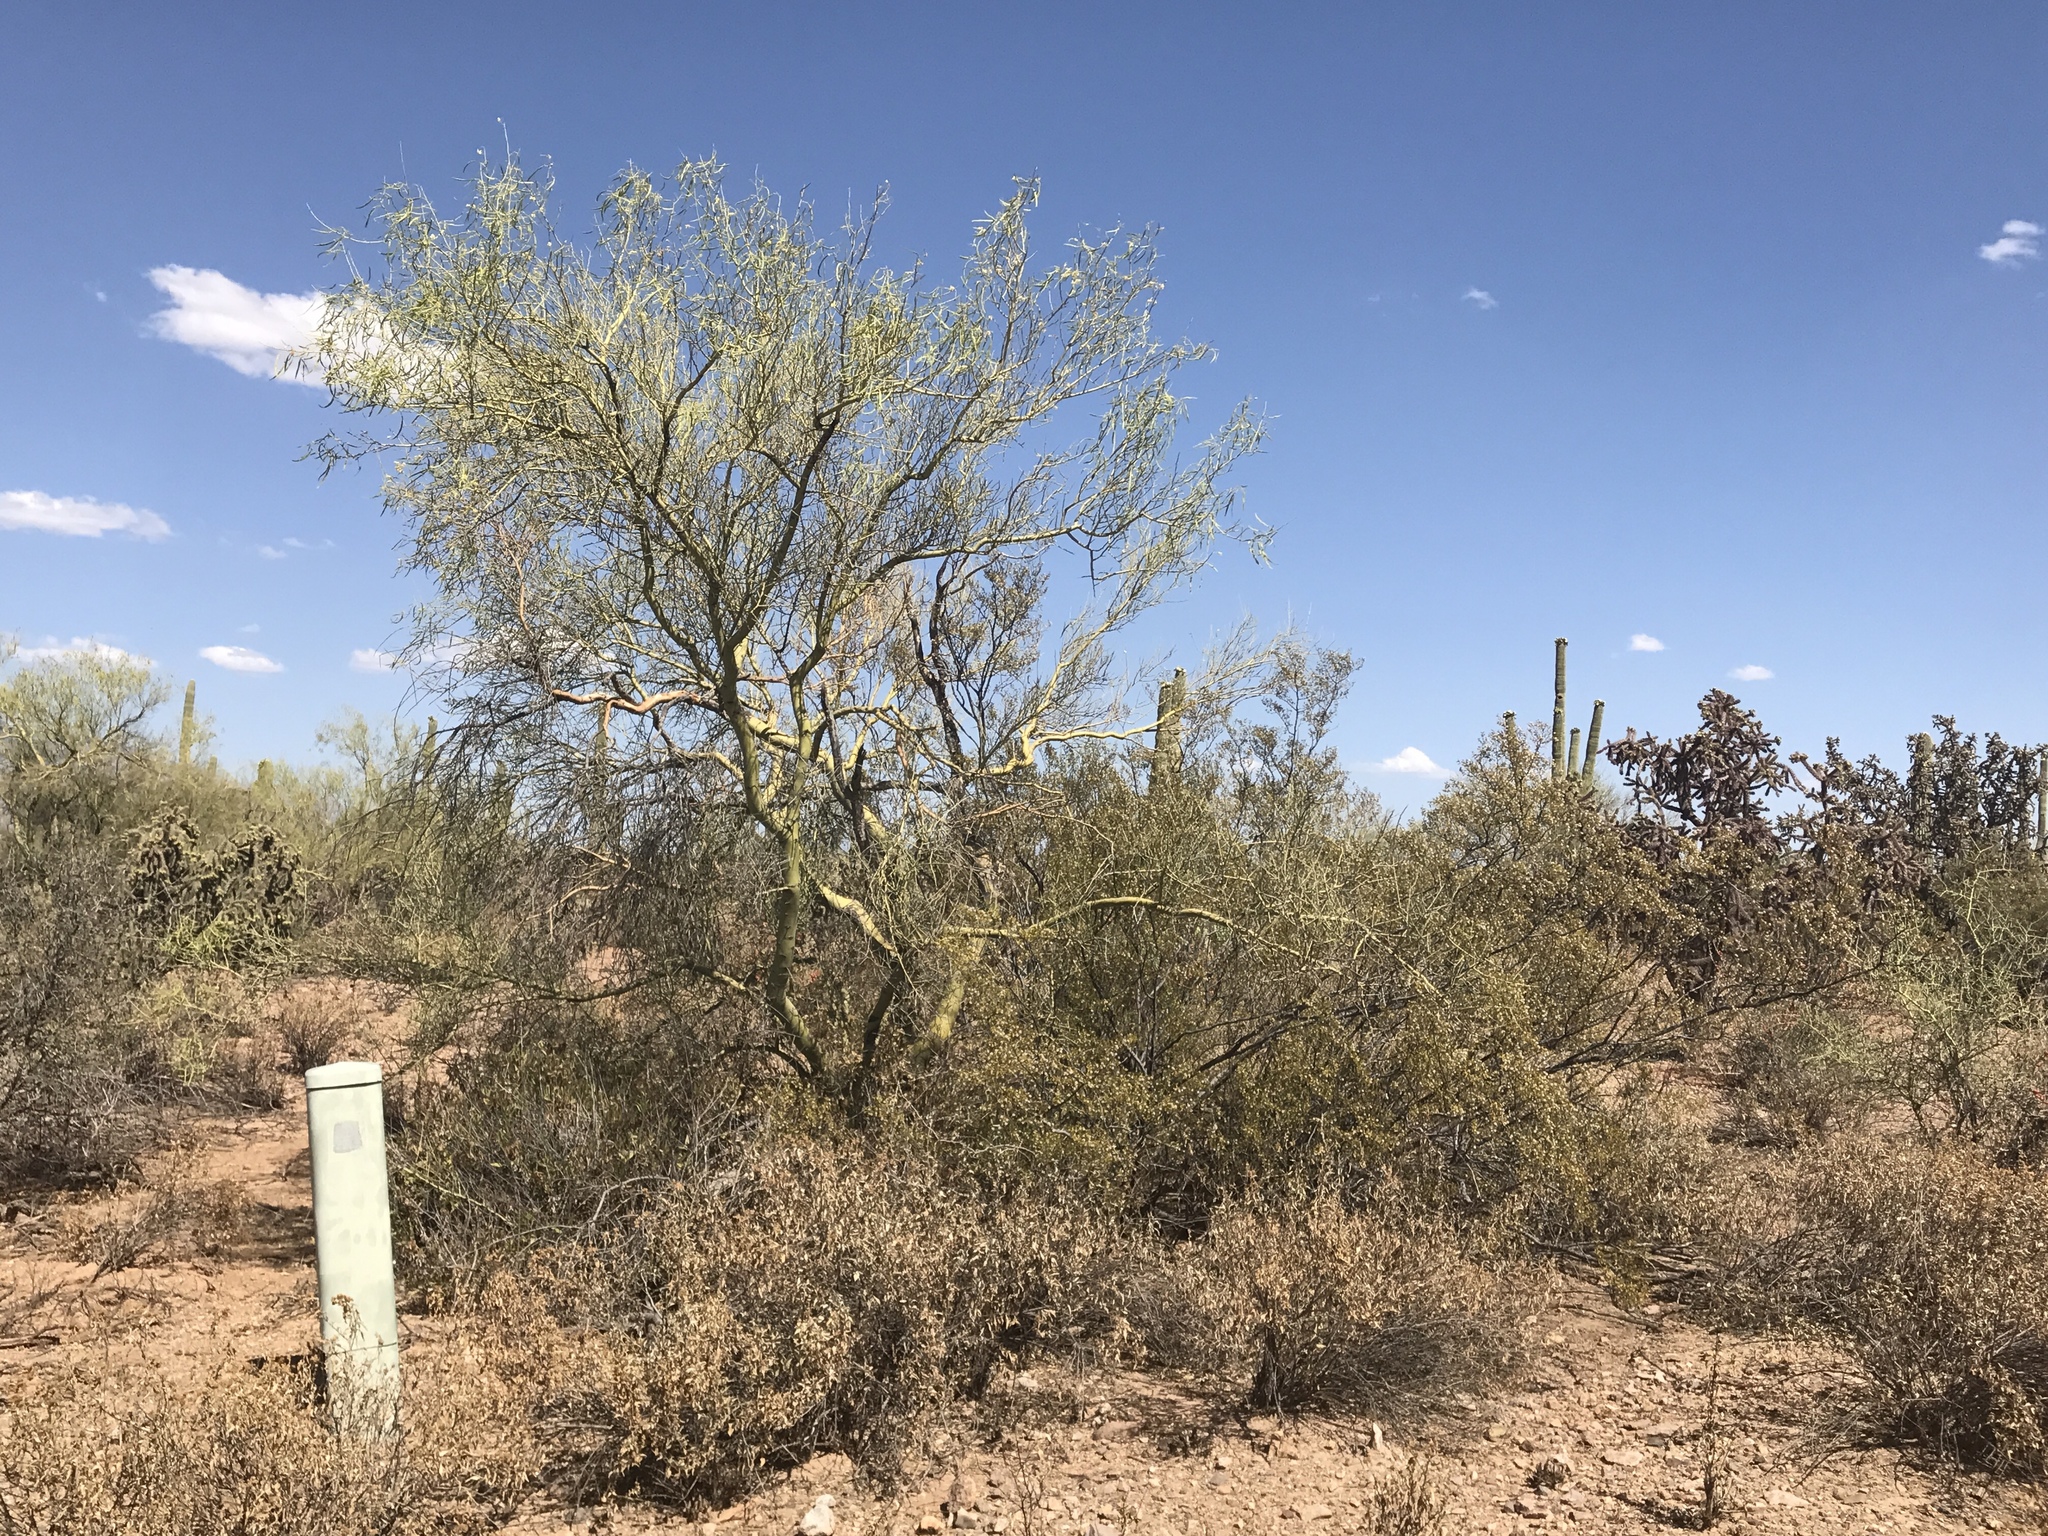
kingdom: Plantae
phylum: Tracheophyta
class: Magnoliopsida
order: Fabales
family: Fabaceae
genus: Parkinsonia
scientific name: Parkinsonia microphylla
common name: Yellow paloverde
